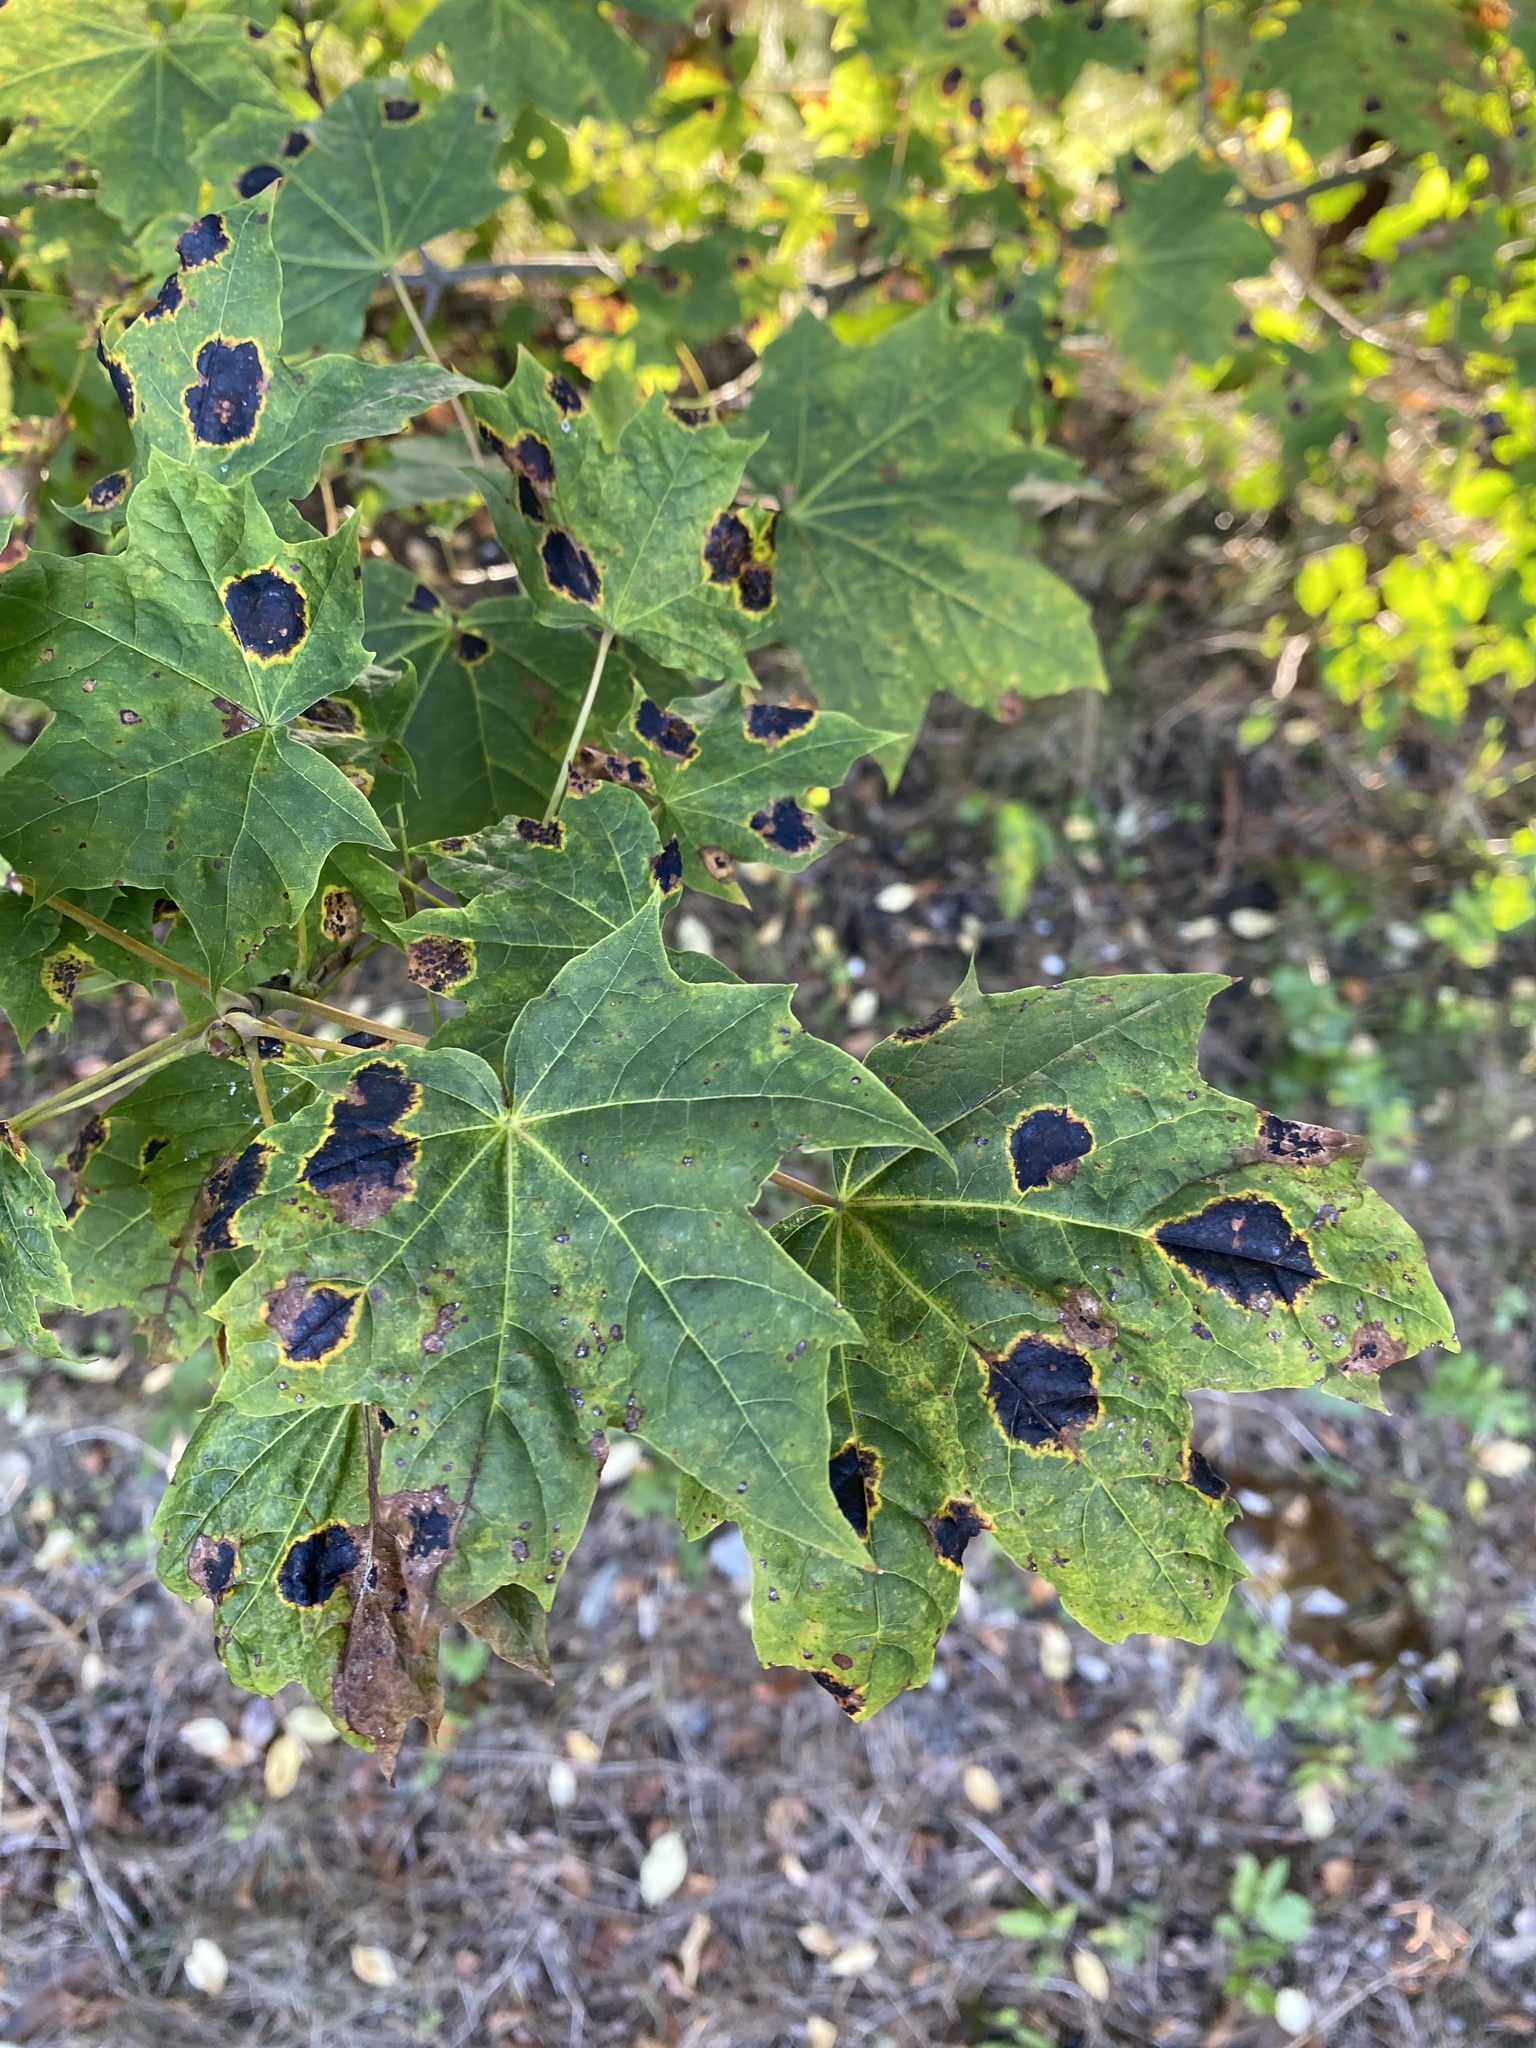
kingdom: Fungi
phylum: Ascomycota
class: Leotiomycetes
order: Rhytismatales
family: Rhytismataceae
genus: Rhytisma
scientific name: Rhytisma acerinum
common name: European tar spot
